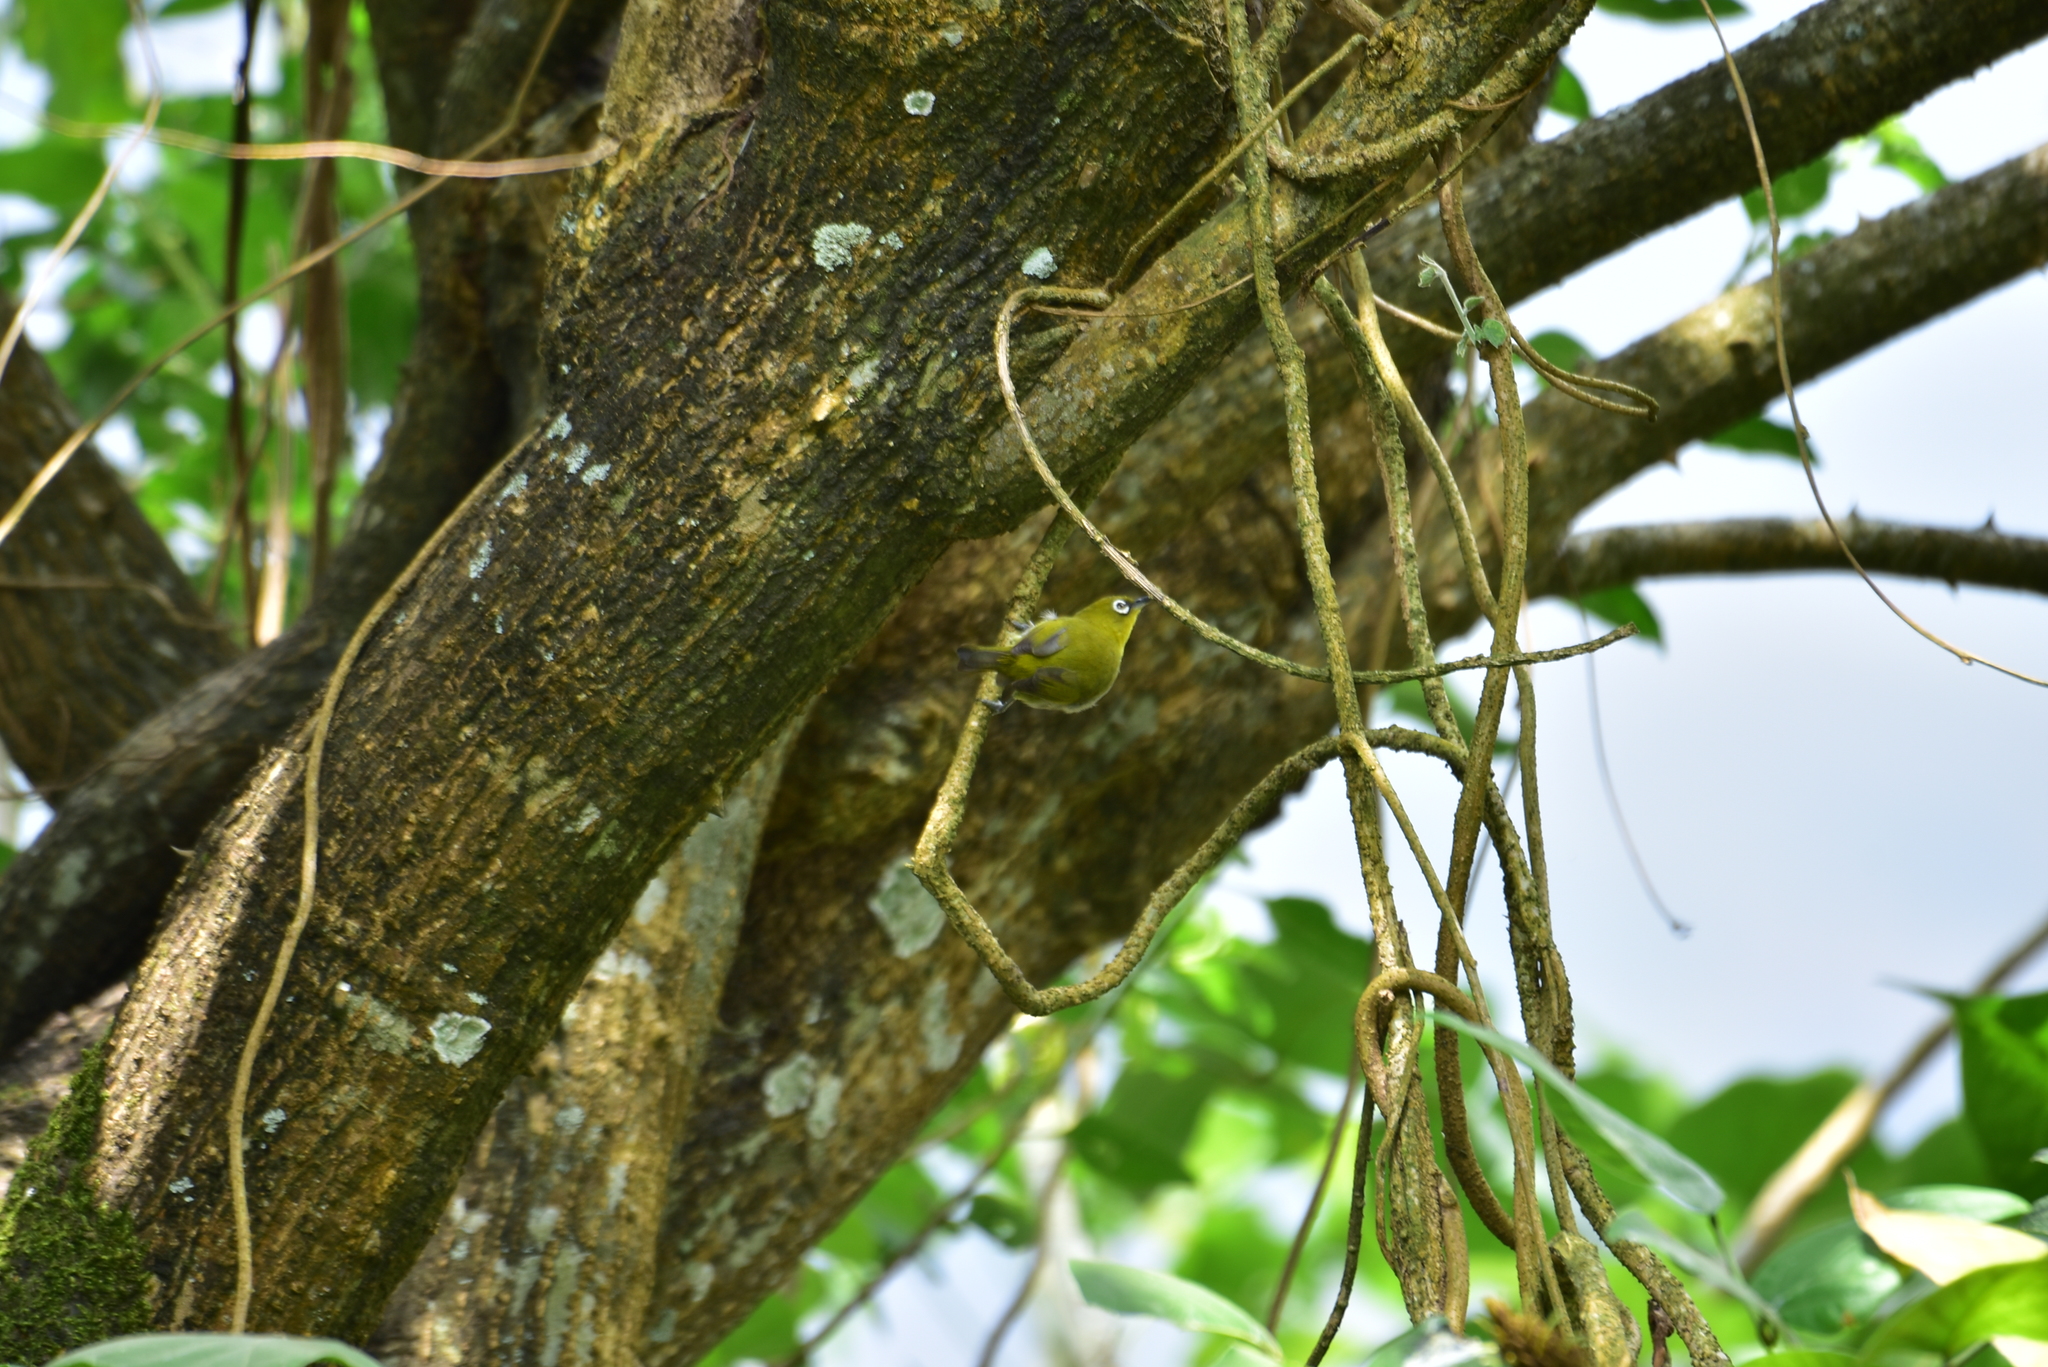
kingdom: Animalia
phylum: Chordata
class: Aves
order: Passeriformes
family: Zosteropidae
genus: Zosterops
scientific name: Zosterops palpebrosus
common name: Oriental white-eye
